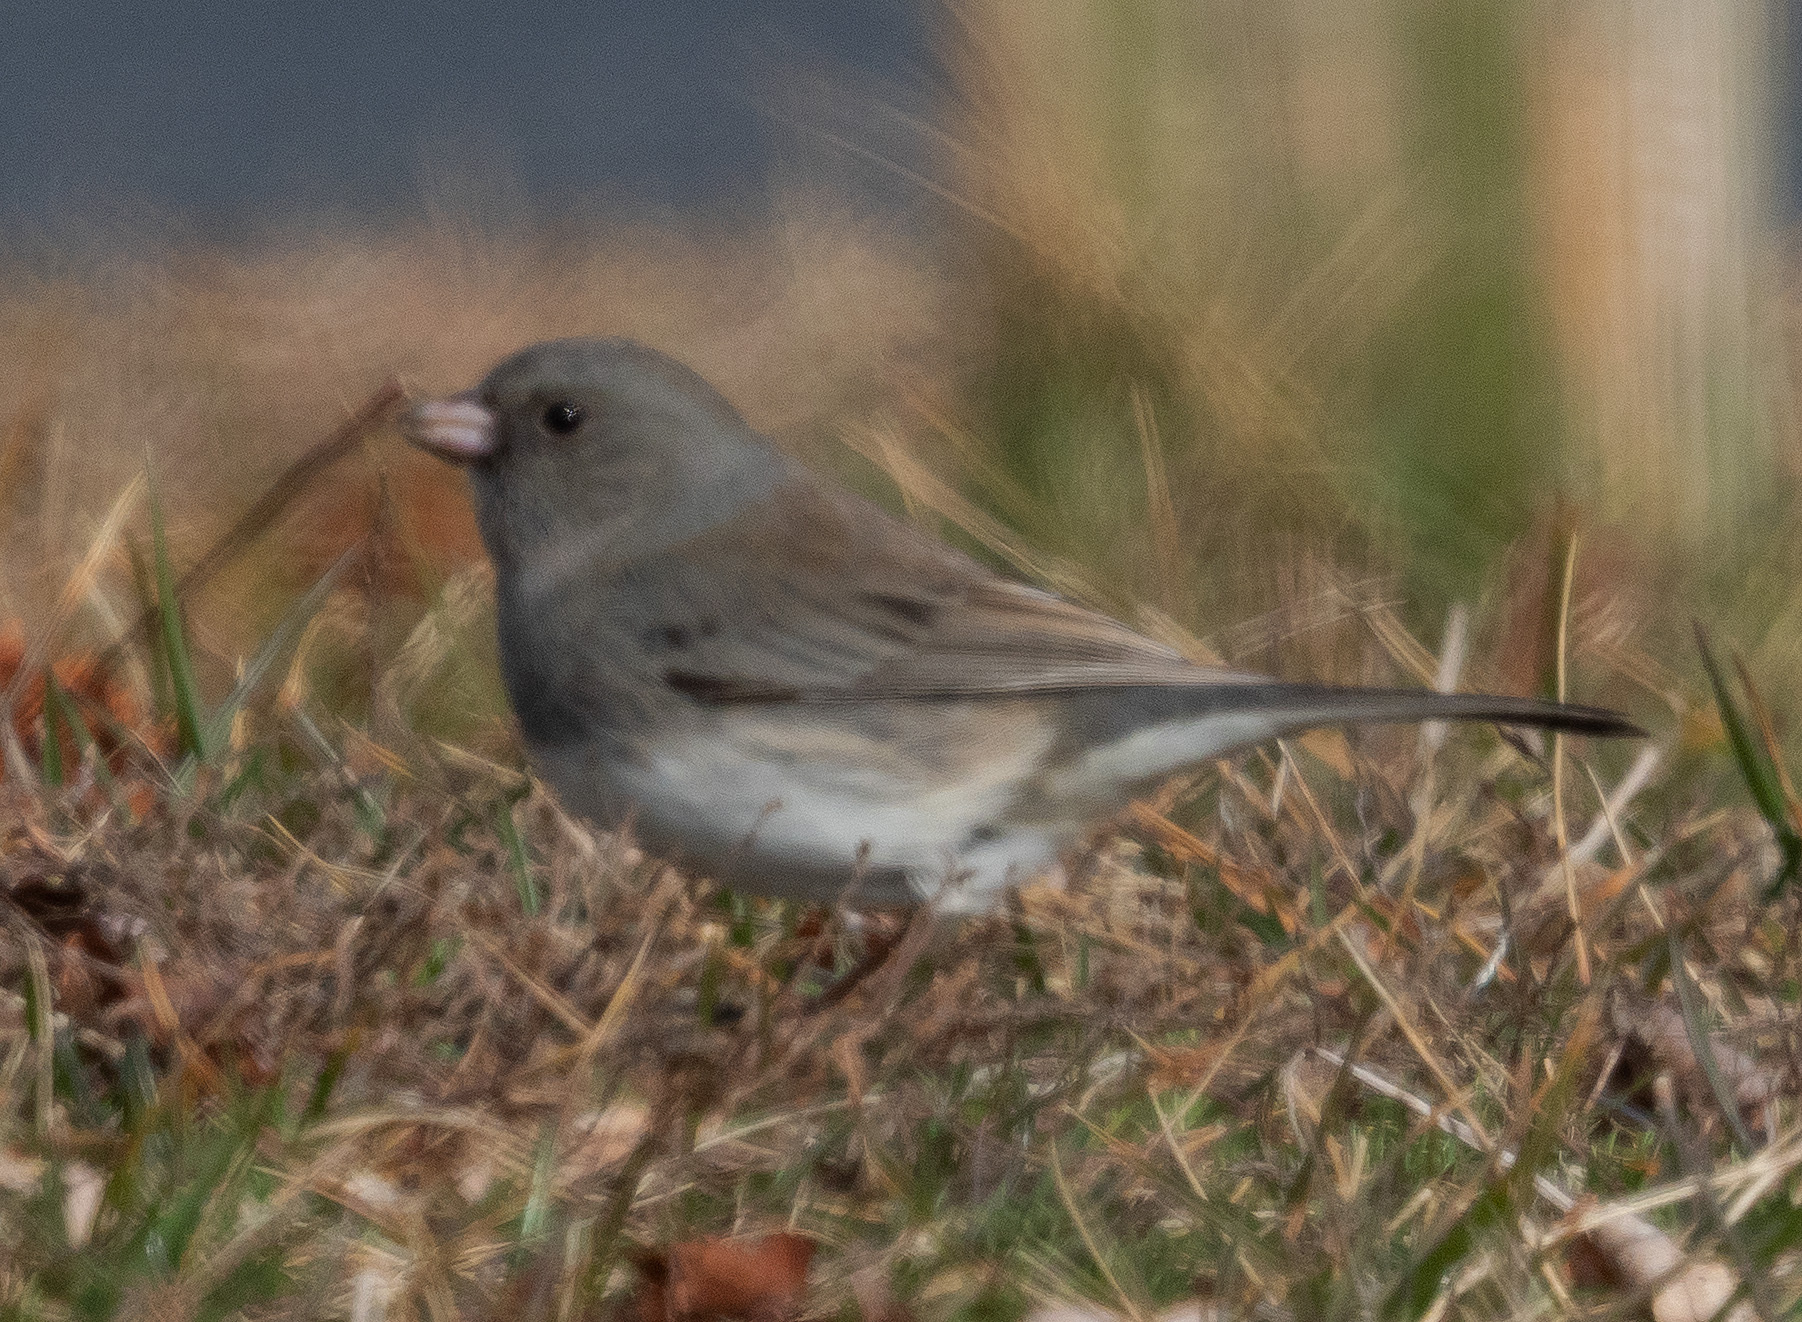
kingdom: Animalia
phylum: Chordata
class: Aves
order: Passeriformes
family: Passerellidae
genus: Junco
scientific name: Junco hyemalis
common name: Dark-eyed junco
